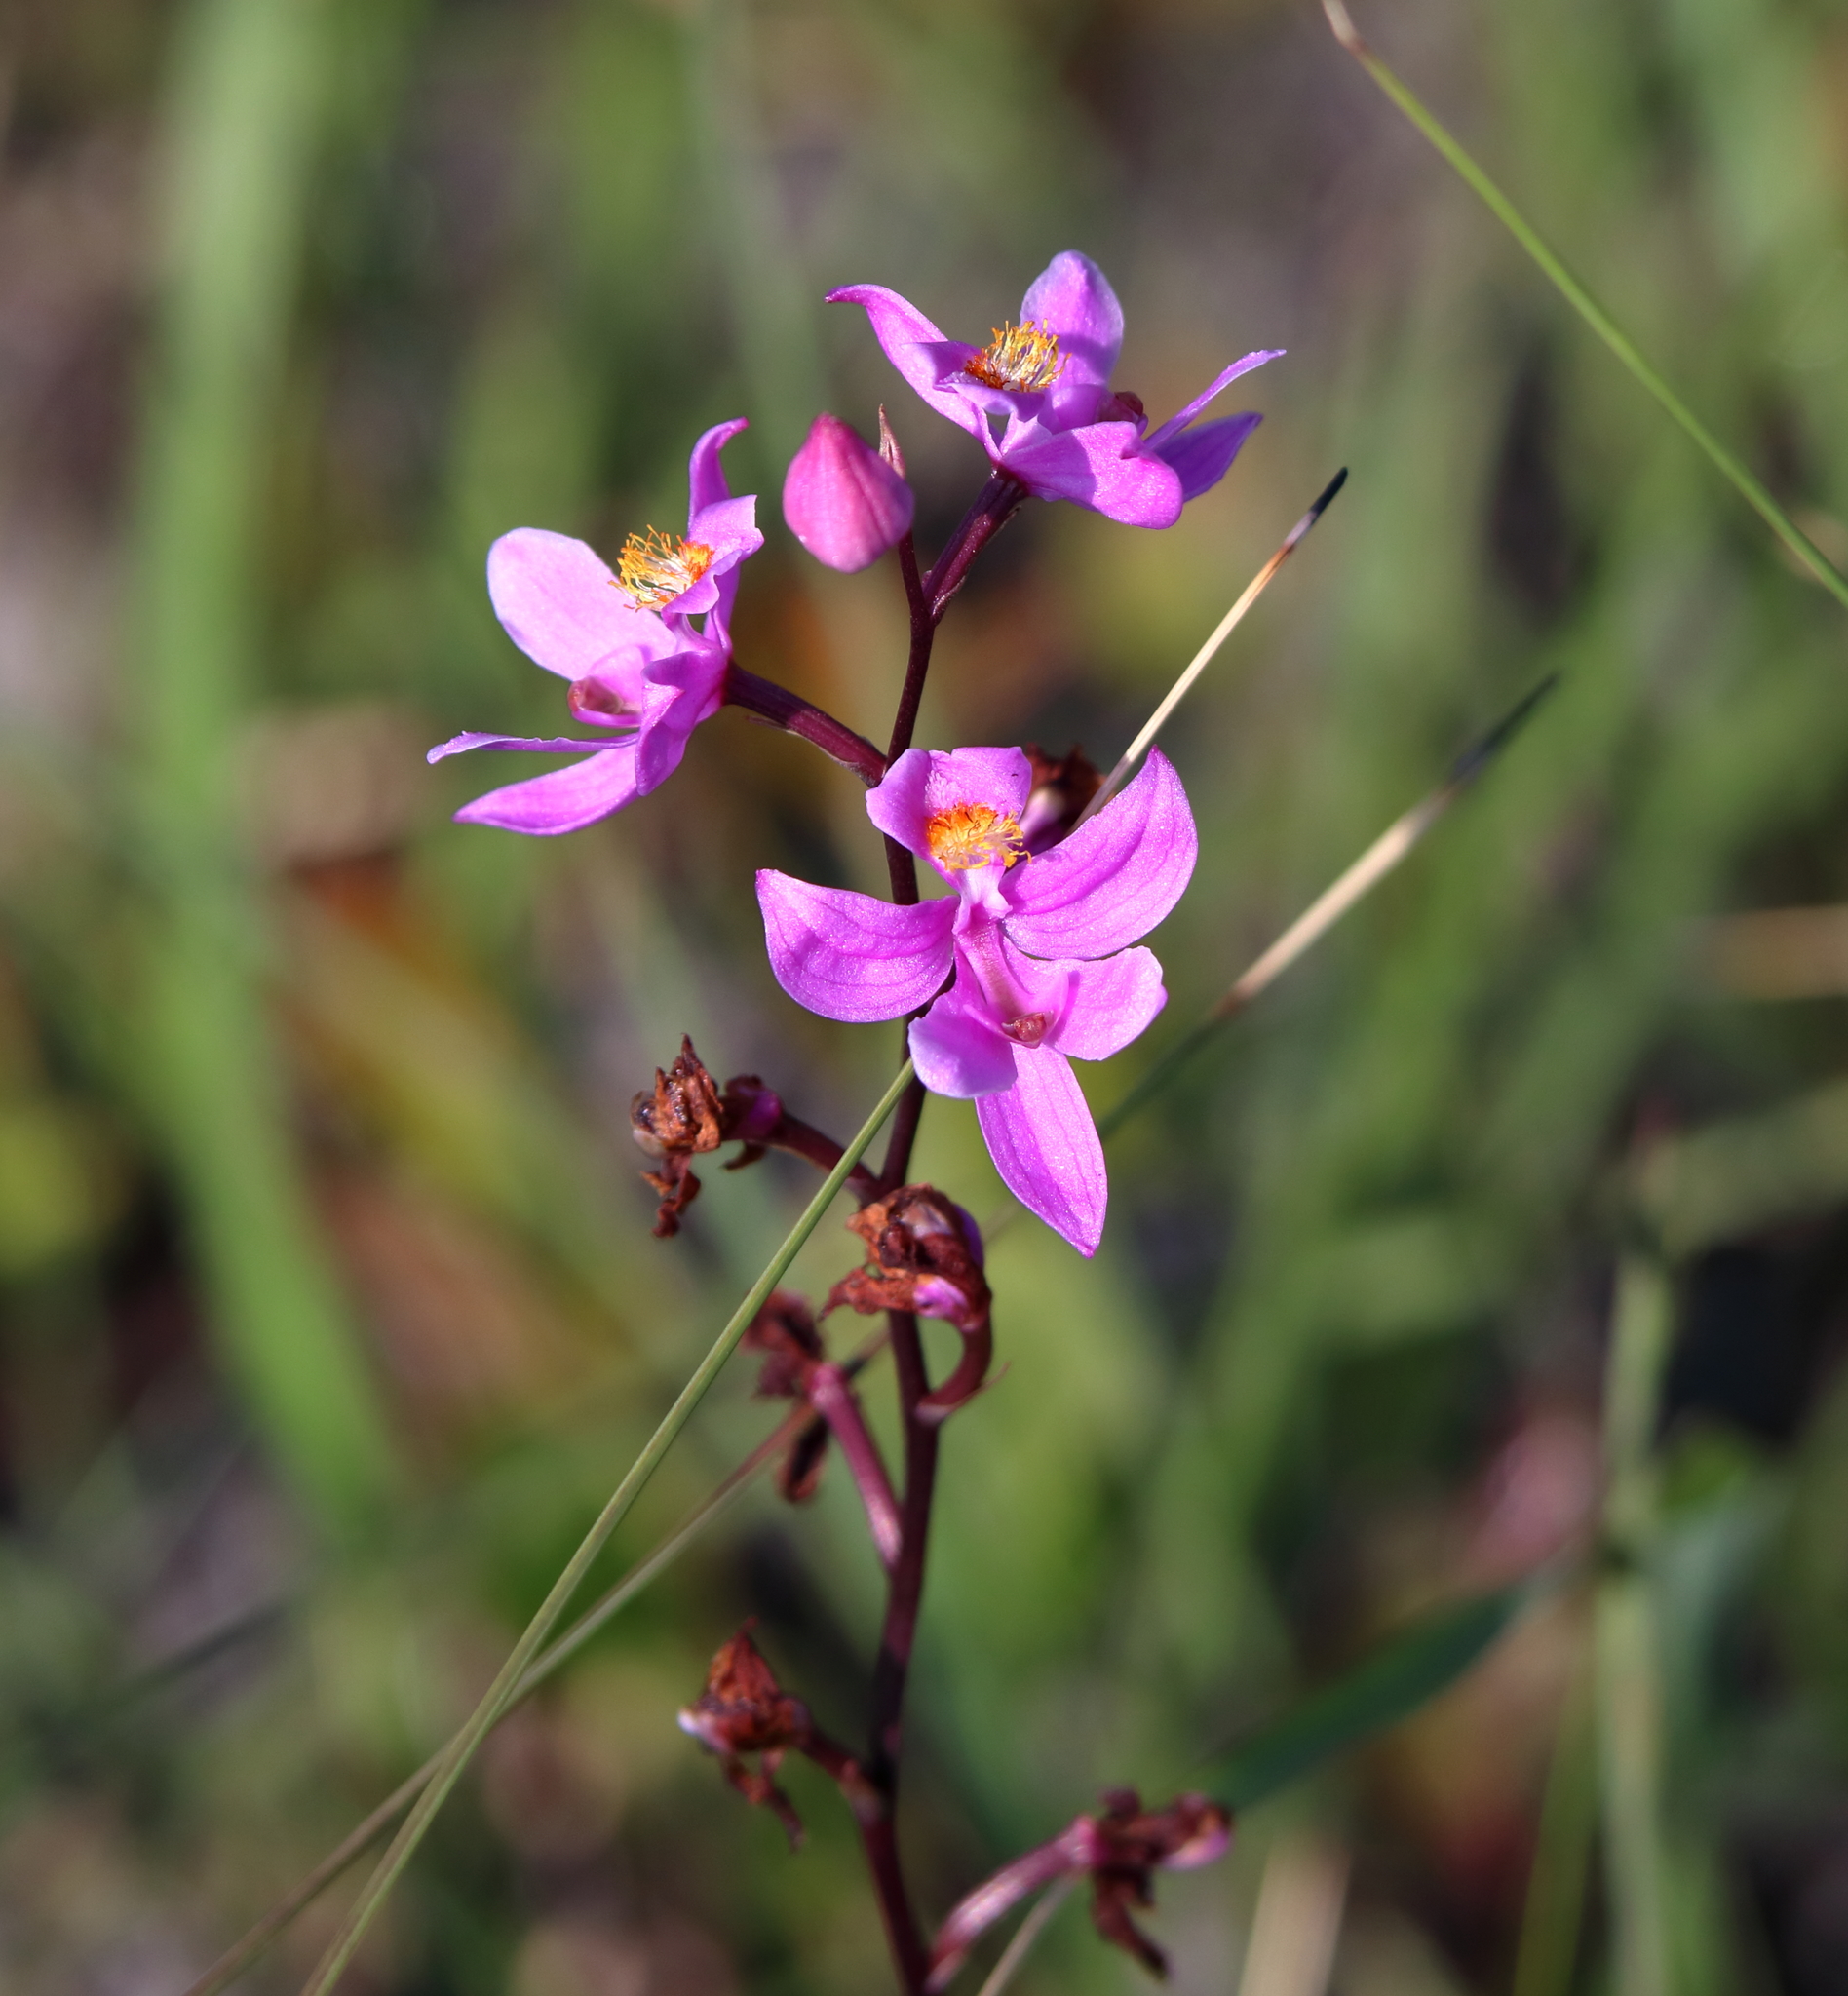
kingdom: Plantae
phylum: Tracheophyta
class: Liliopsida
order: Asparagales
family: Orchidaceae
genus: Calopogon
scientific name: Calopogon multiflorus
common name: Many-flowered grass-pink orchid
